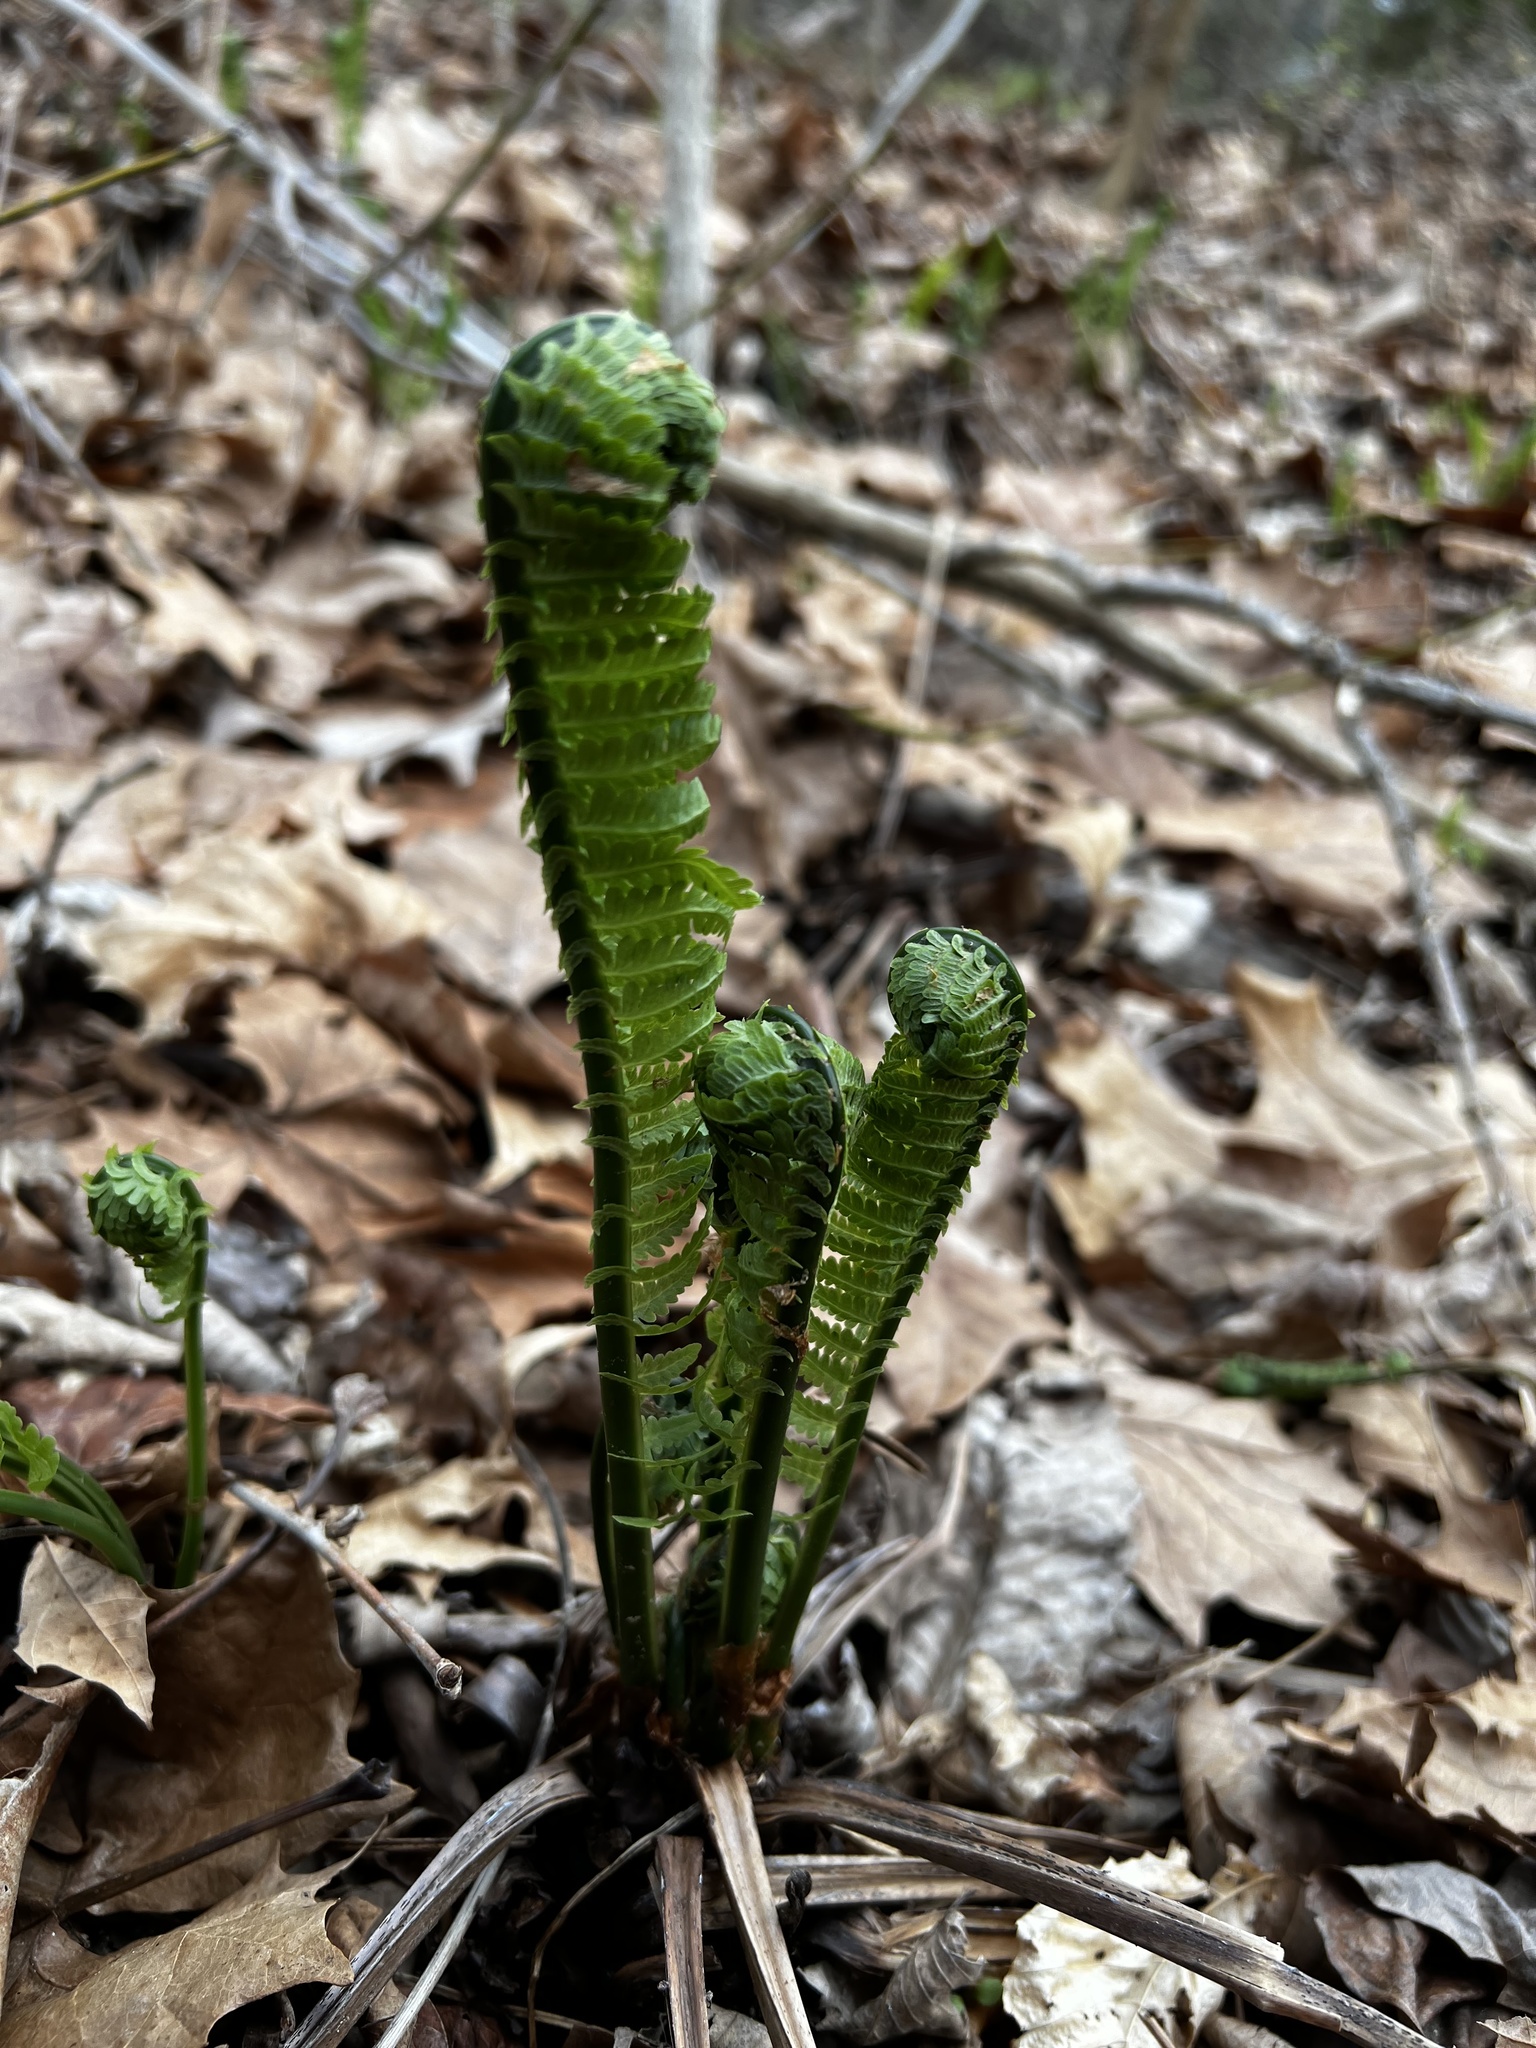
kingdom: Plantae
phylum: Tracheophyta
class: Polypodiopsida
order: Polypodiales
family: Onocleaceae
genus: Matteuccia
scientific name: Matteuccia struthiopteris
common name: Ostrich fern
